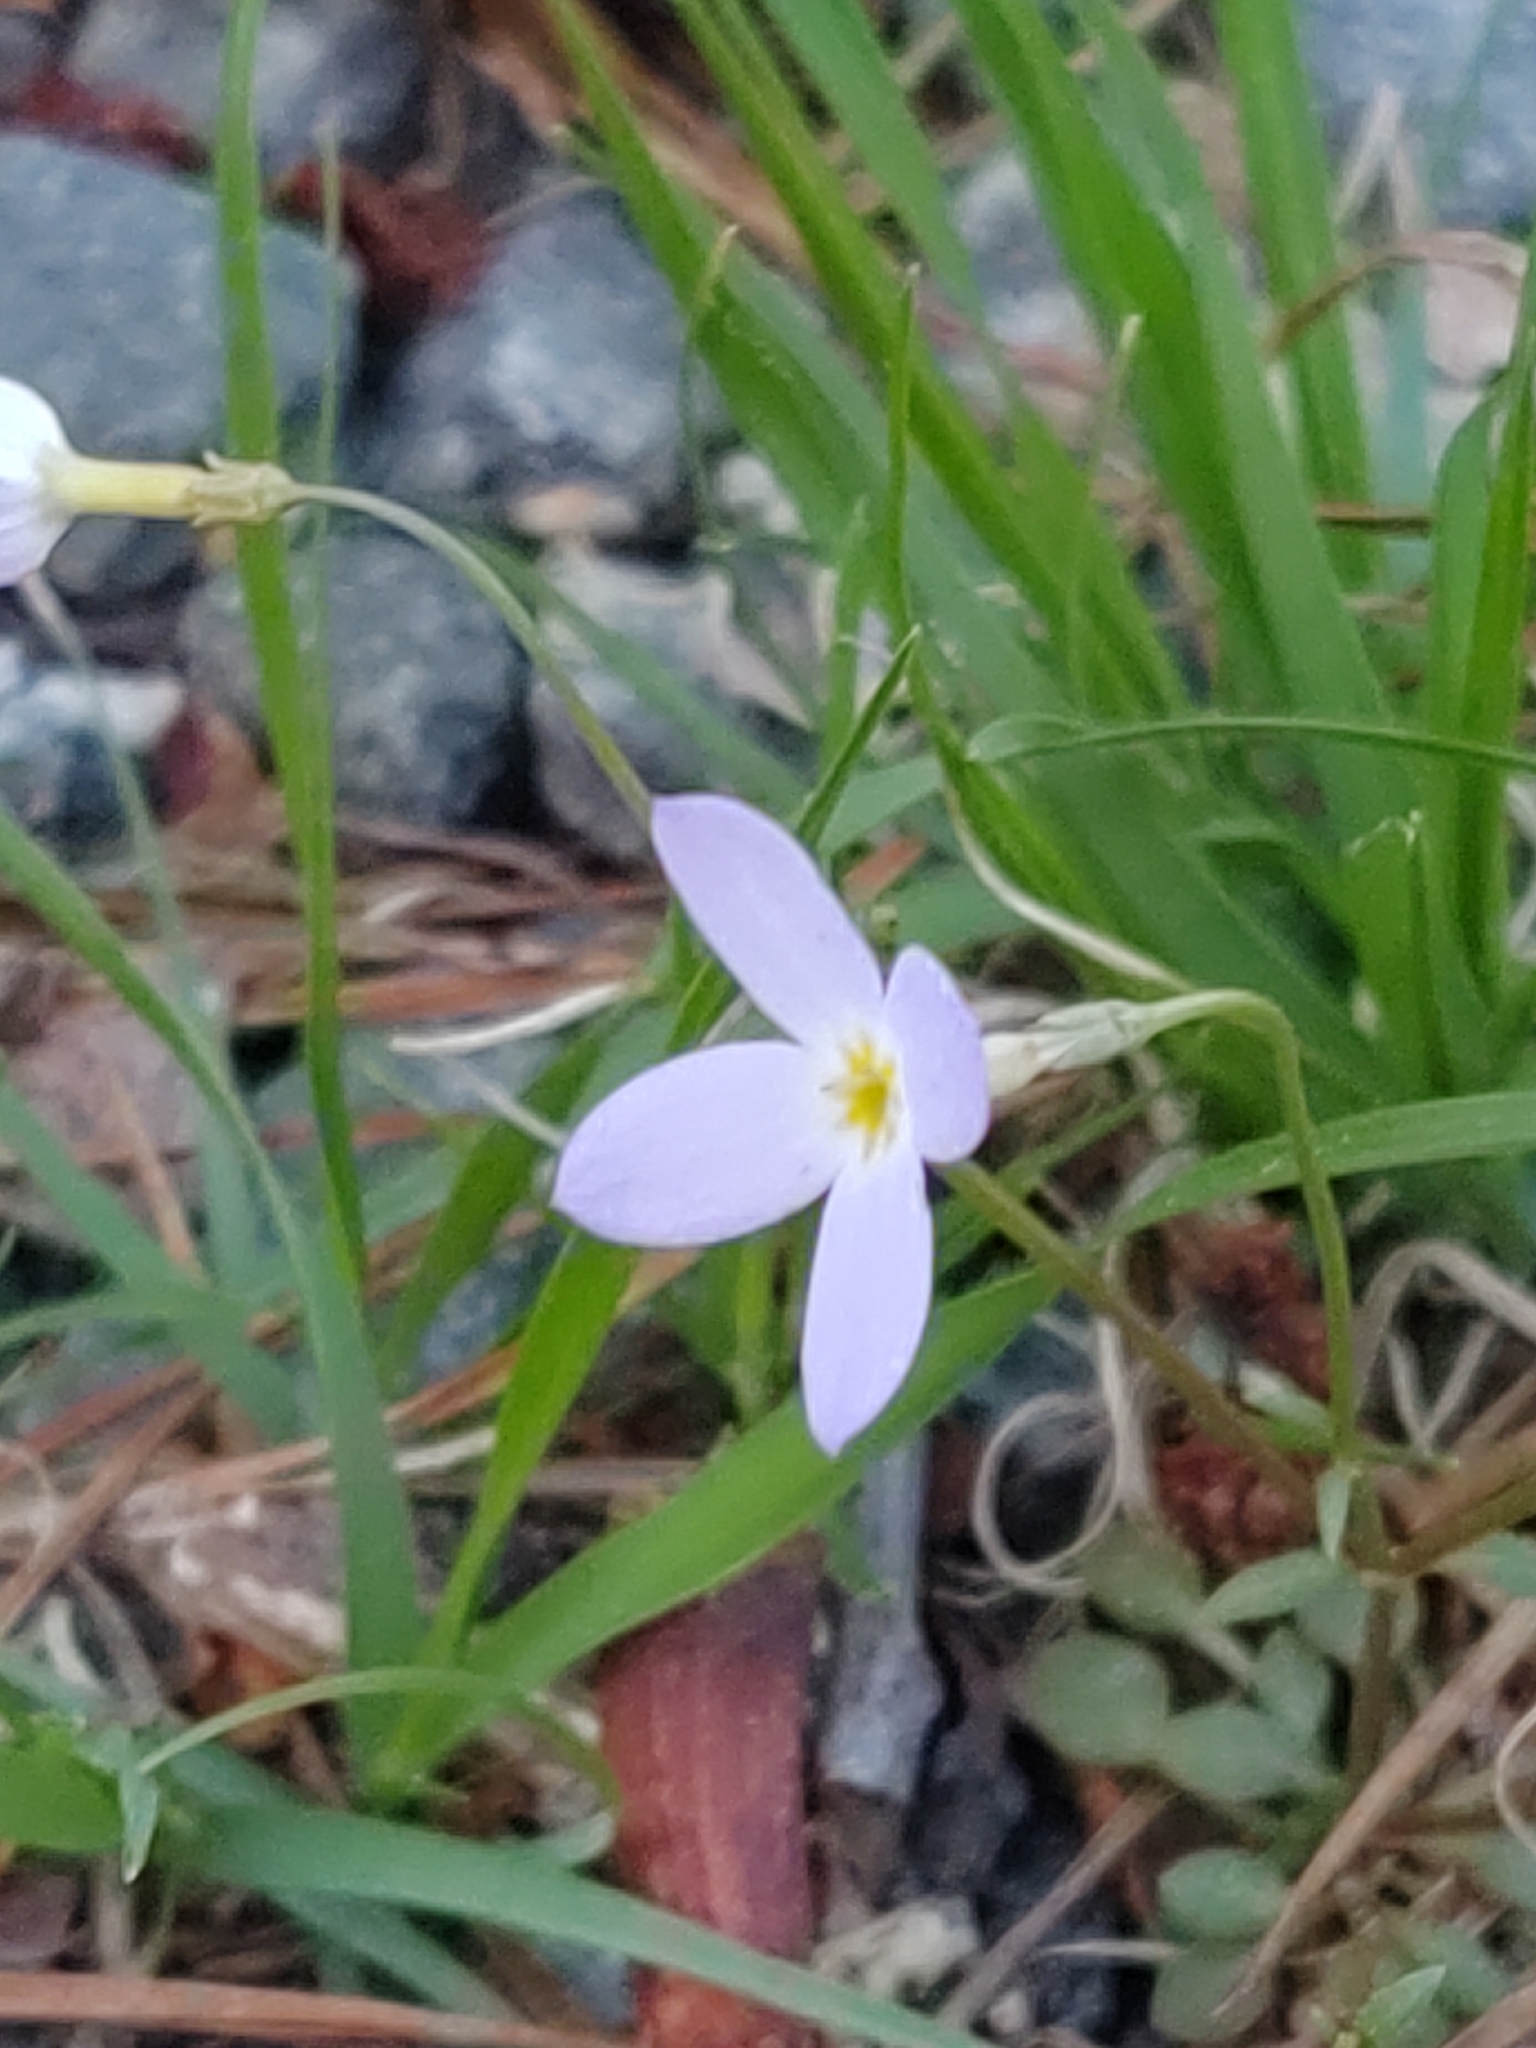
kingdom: Plantae
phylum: Tracheophyta
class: Magnoliopsida
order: Gentianales
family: Rubiaceae
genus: Houstonia
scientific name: Houstonia caerulea
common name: Bluets
